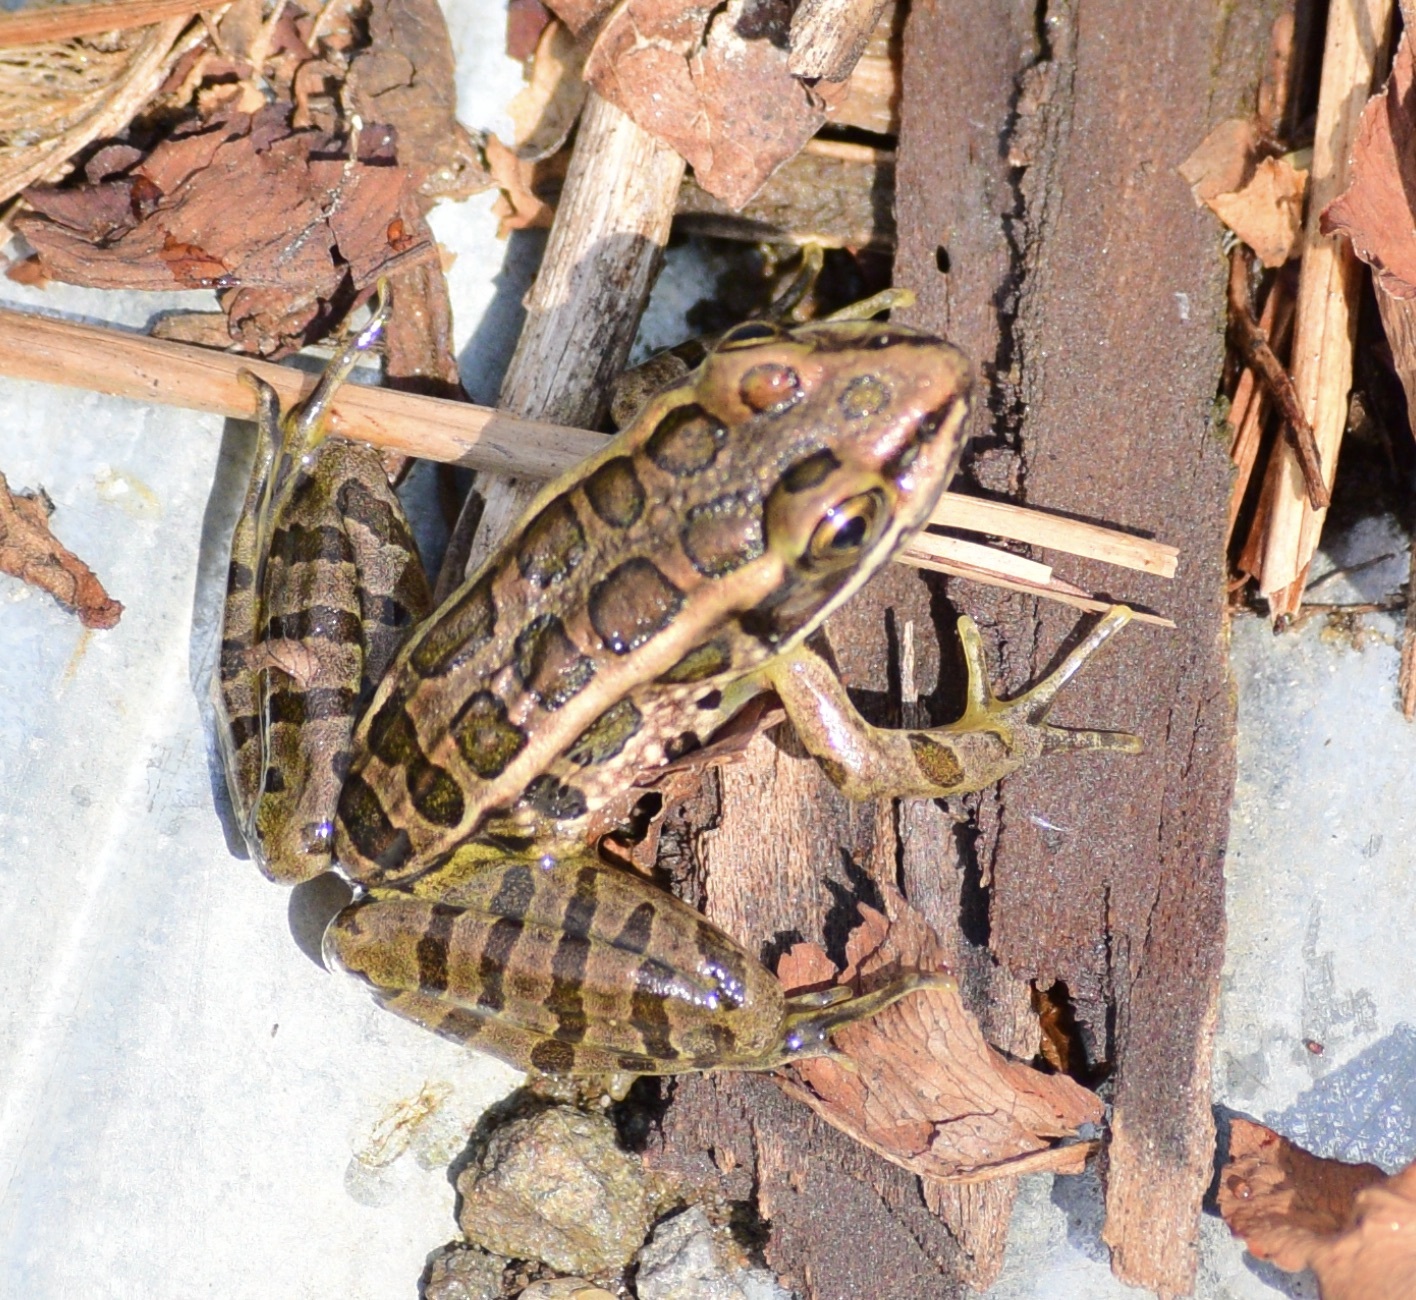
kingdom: Animalia
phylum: Chordata
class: Amphibia
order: Anura
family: Ranidae
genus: Lithobates
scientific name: Lithobates palustris
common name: Pickerel frog
